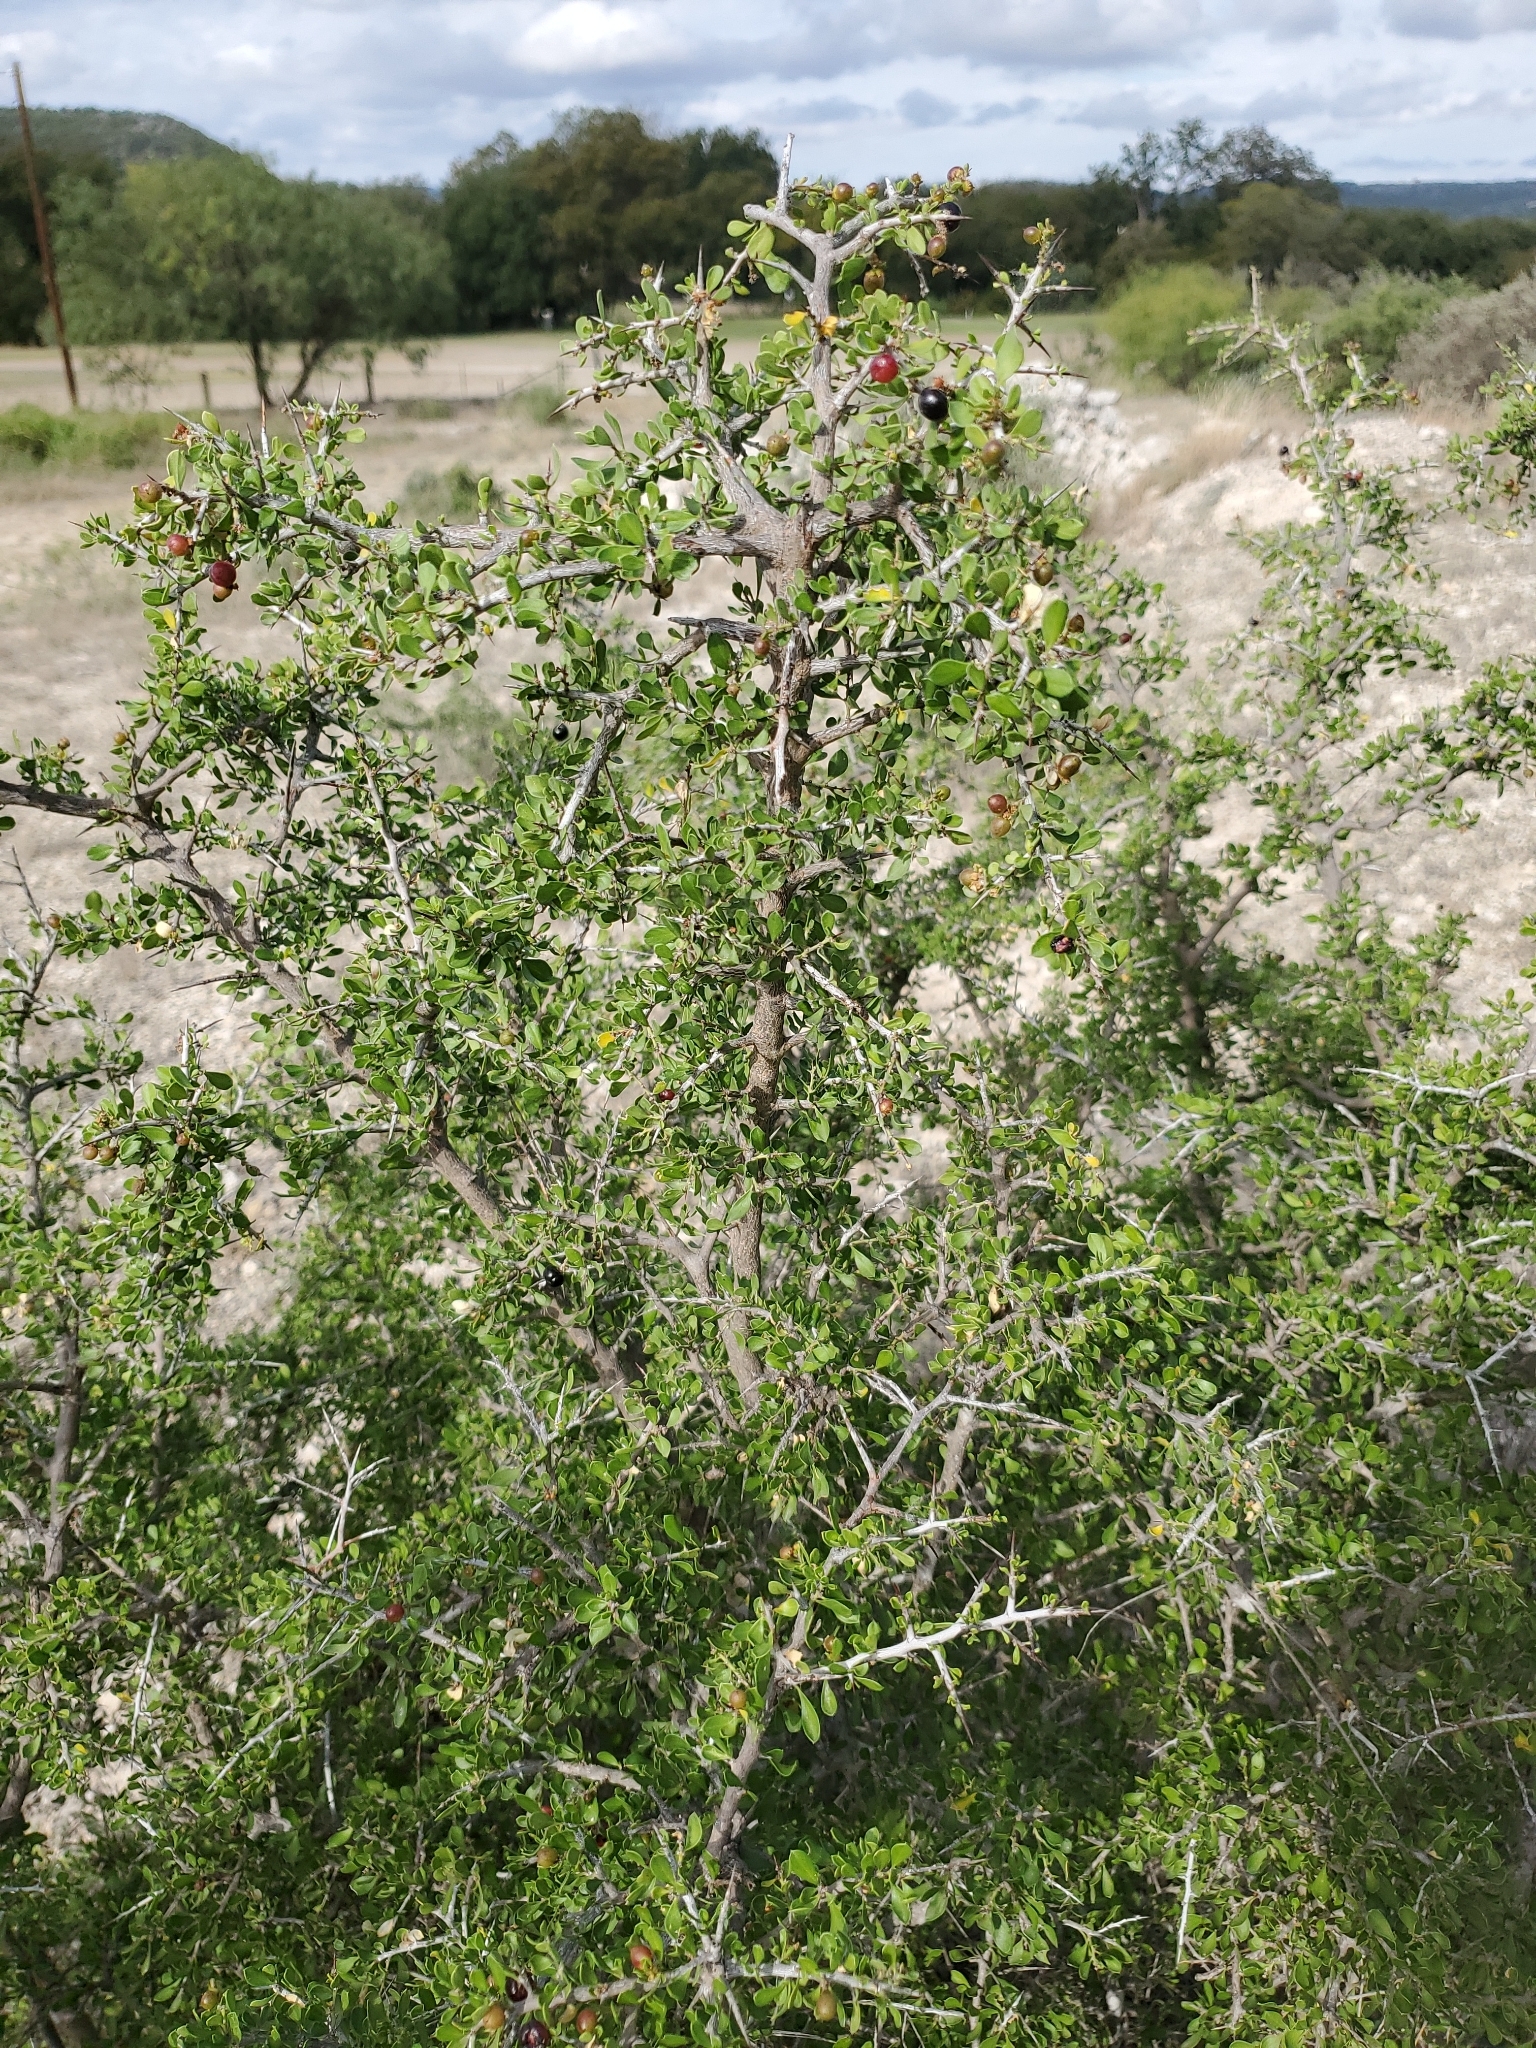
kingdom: Plantae
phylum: Tracheophyta
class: Magnoliopsida
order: Rosales
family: Rhamnaceae
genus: Condalia
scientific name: Condalia viridis
